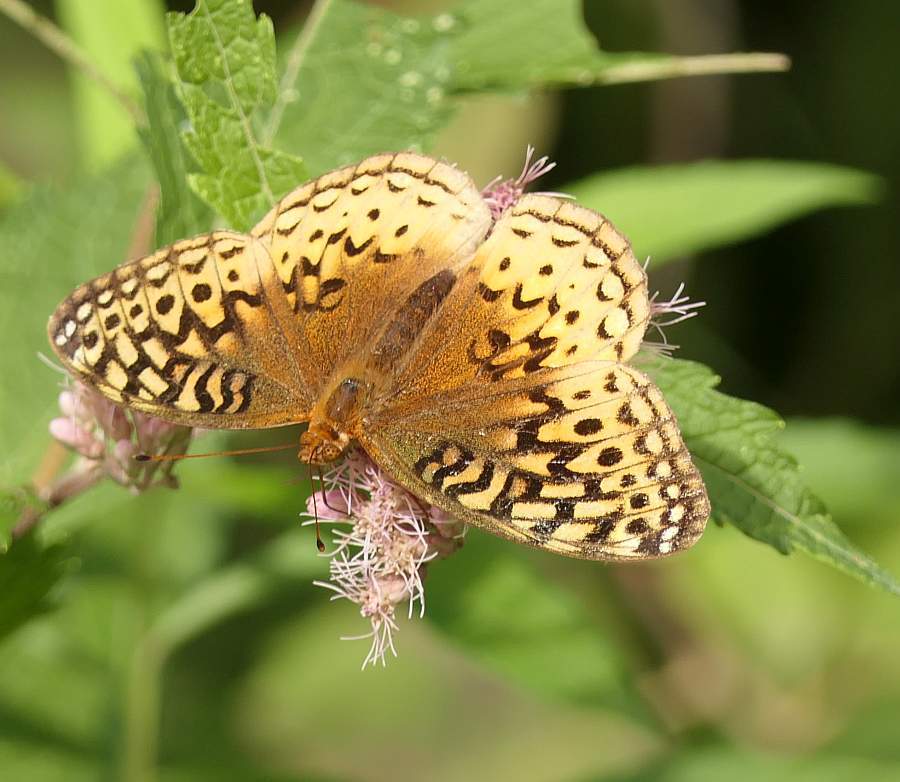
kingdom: Animalia
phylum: Arthropoda
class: Insecta
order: Lepidoptera
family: Nymphalidae
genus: Speyeria
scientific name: Speyeria cybele
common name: Great spangled fritillary
